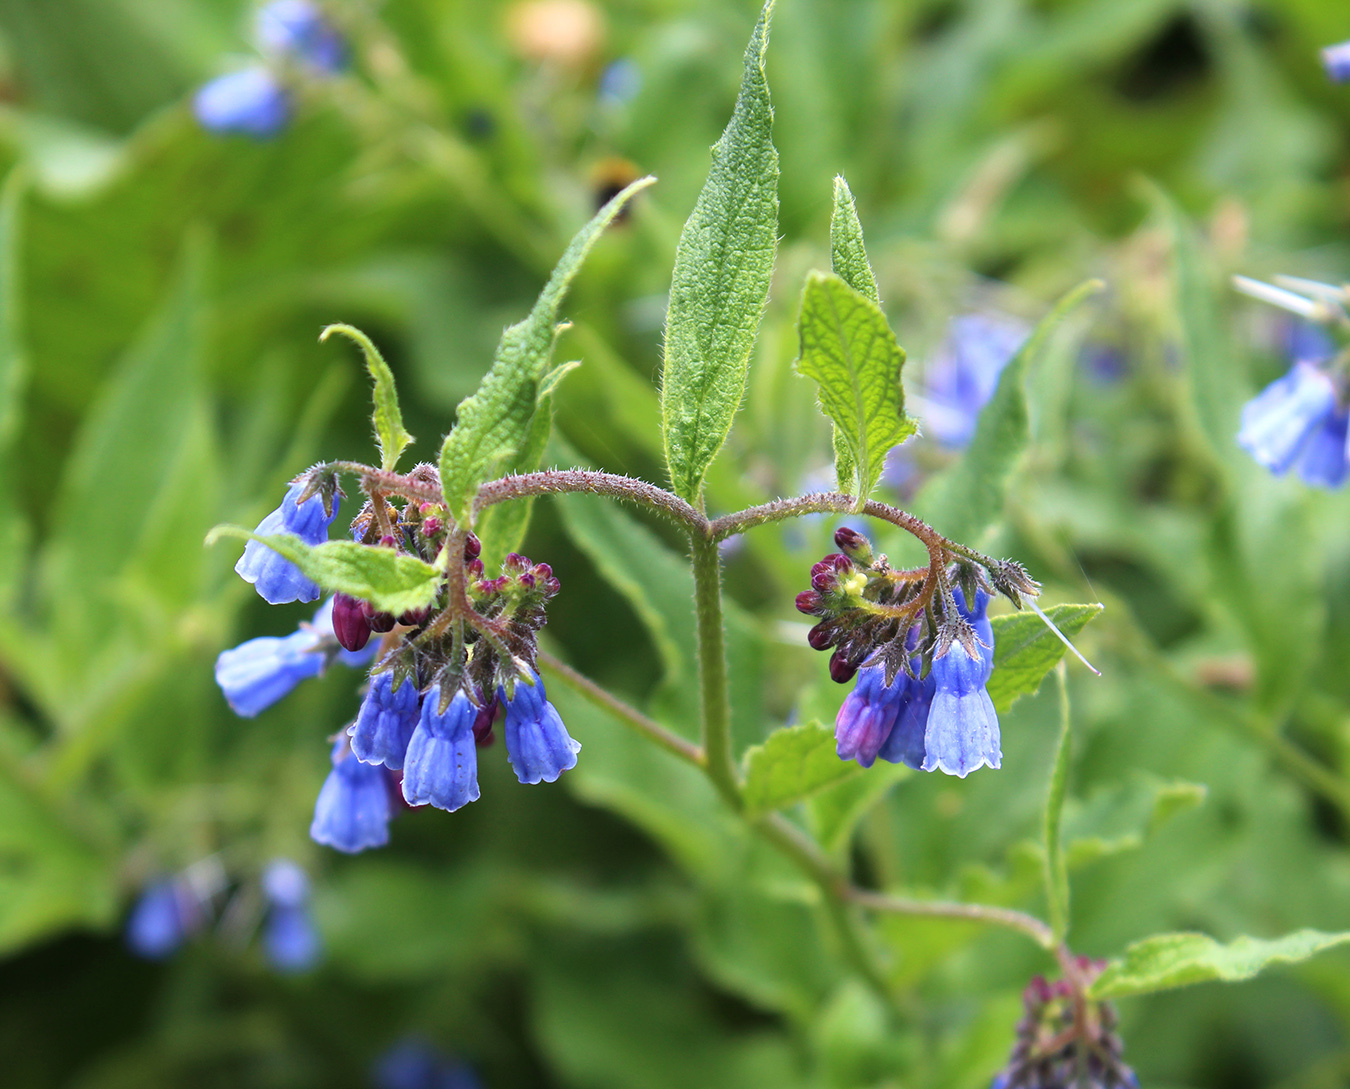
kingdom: Plantae
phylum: Tracheophyta
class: Magnoliopsida
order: Boraginales
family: Boraginaceae
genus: Symphytum
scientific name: Symphytum asperum
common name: Prickly comfrey
